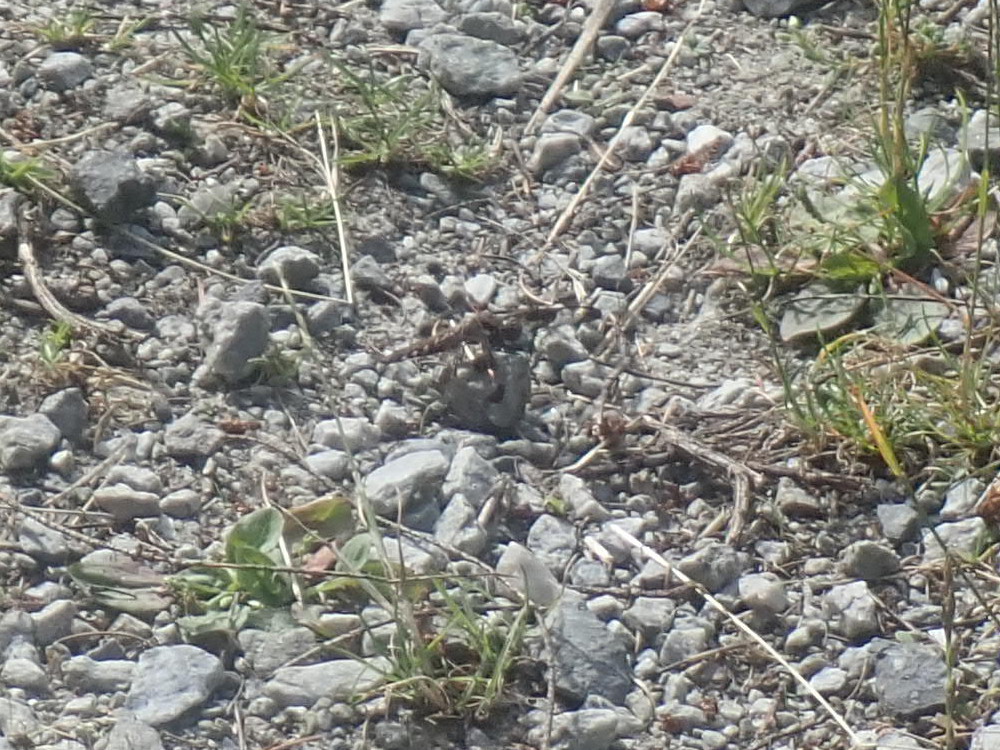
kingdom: Animalia
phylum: Arthropoda
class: Insecta
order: Odonata
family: Libellulidae
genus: Plathemis
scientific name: Plathemis lydia
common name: Common whitetail
